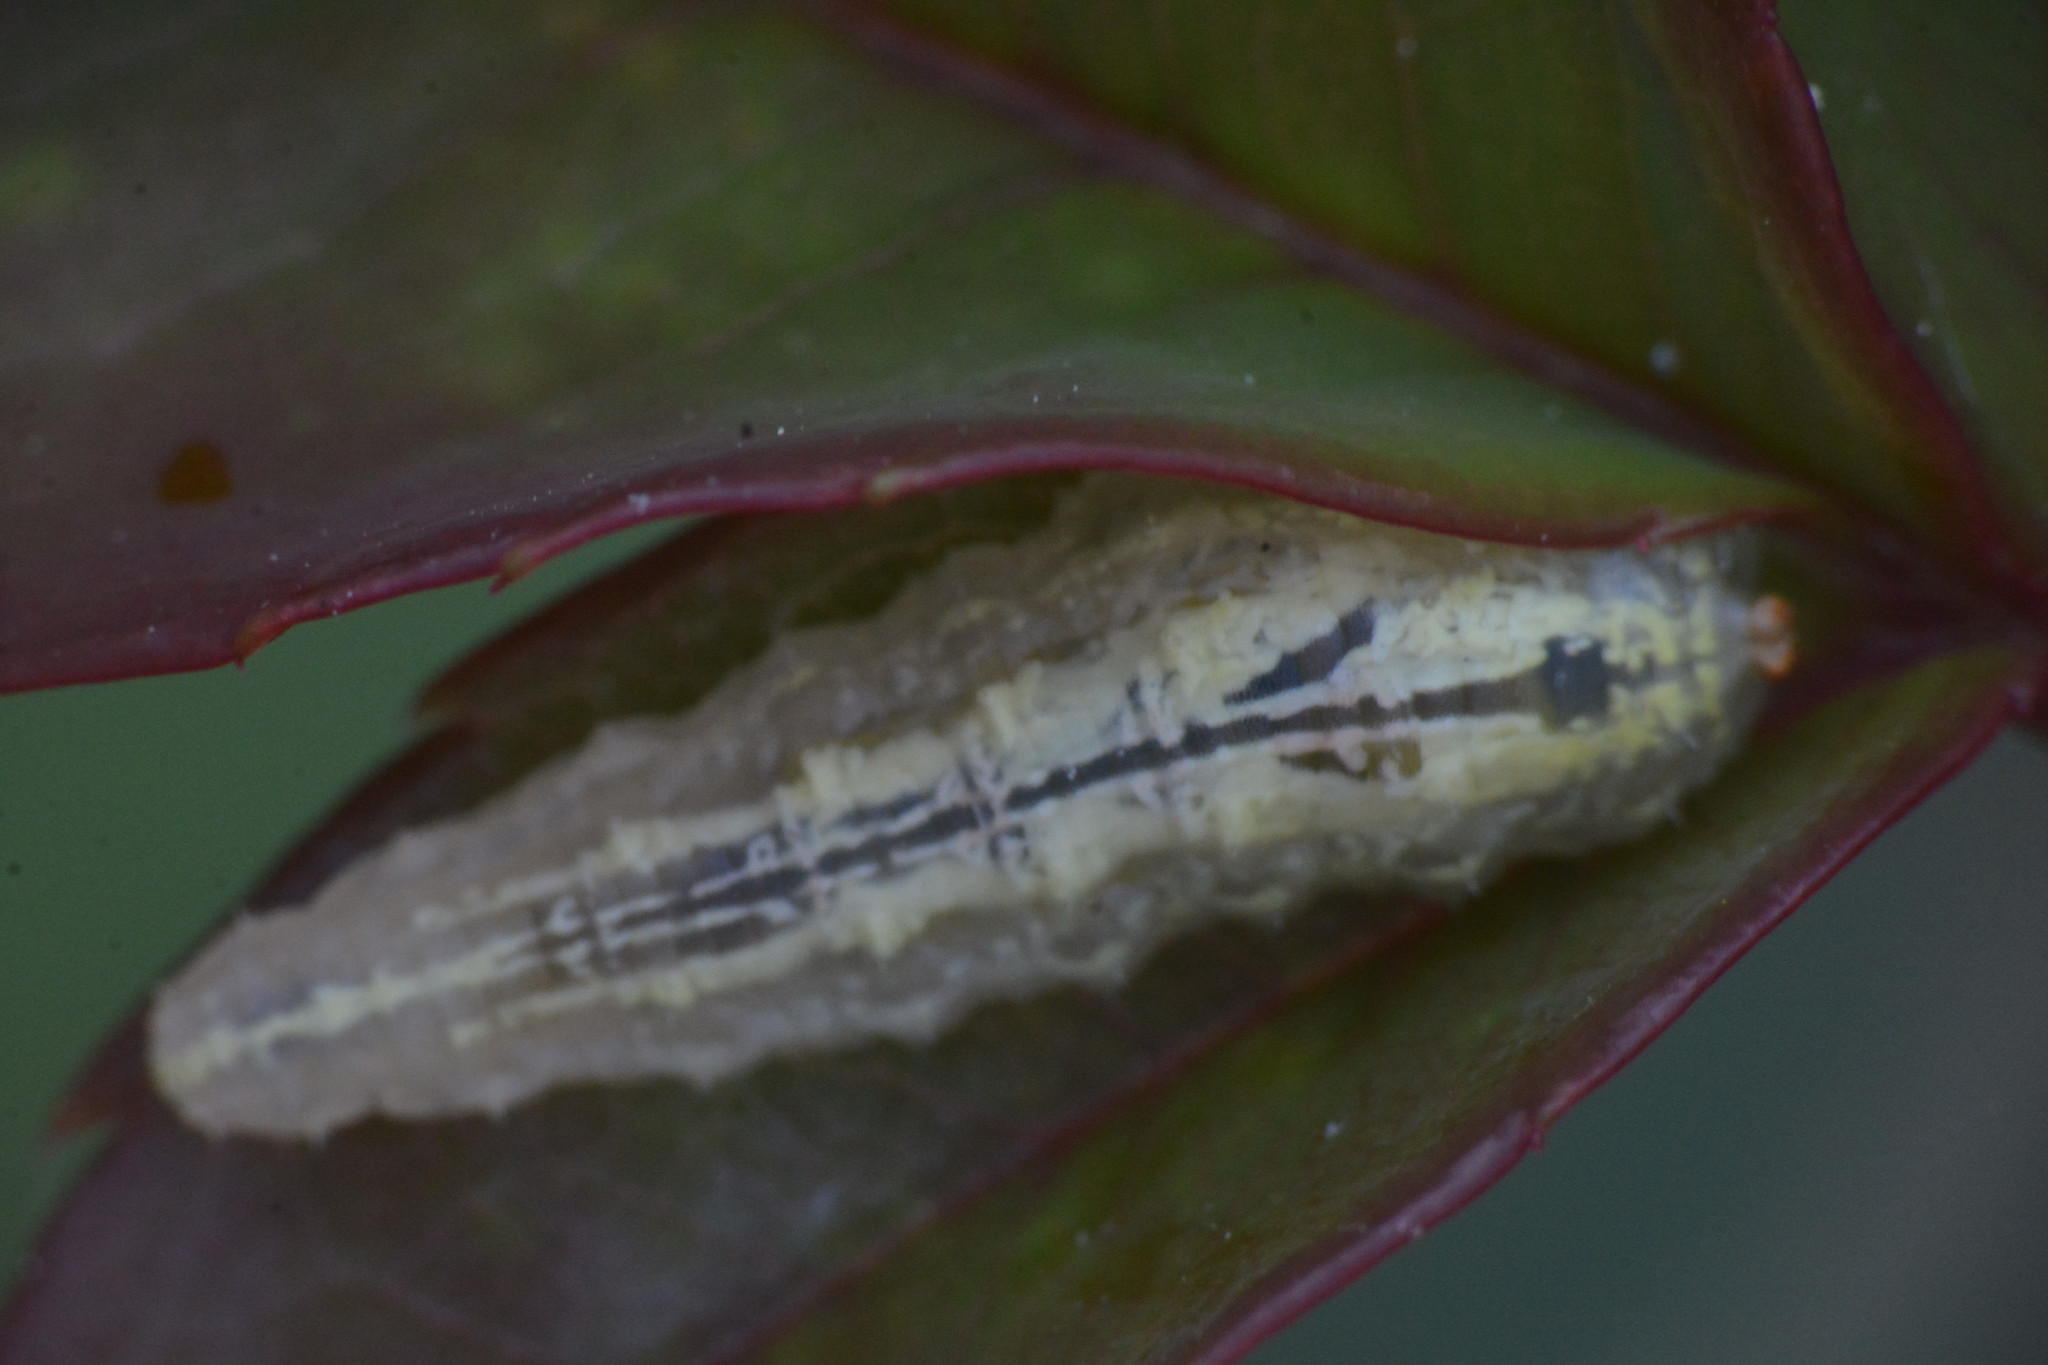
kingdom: Animalia
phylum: Arthropoda
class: Insecta
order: Diptera
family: Syrphidae
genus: Syrphus
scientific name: Syrphus
